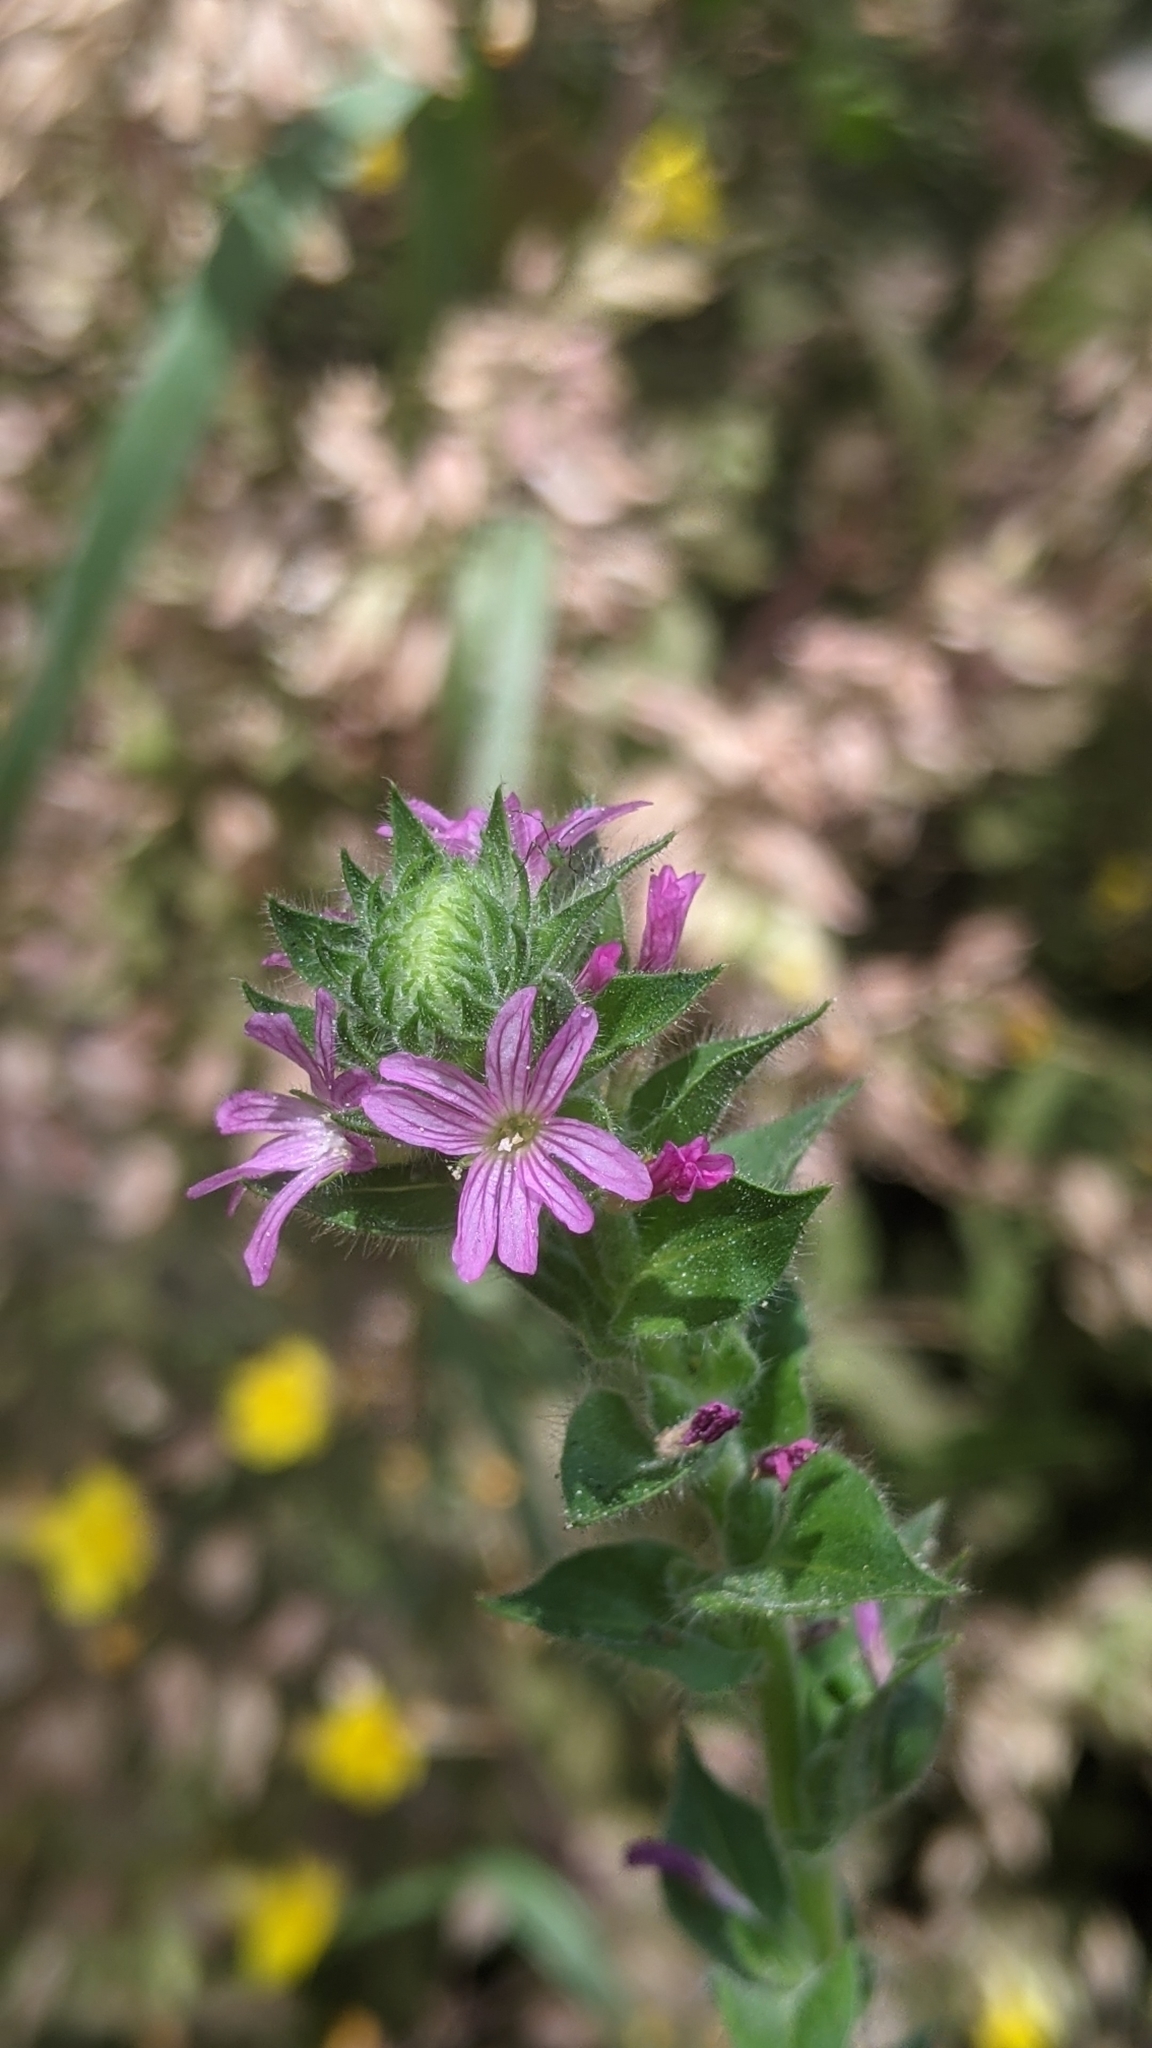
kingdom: Plantae
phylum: Tracheophyta
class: Magnoliopsida
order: Myrtales
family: Onagraceae
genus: Epilobium
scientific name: Epilobium densiflorum
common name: Dense spike-primrose
